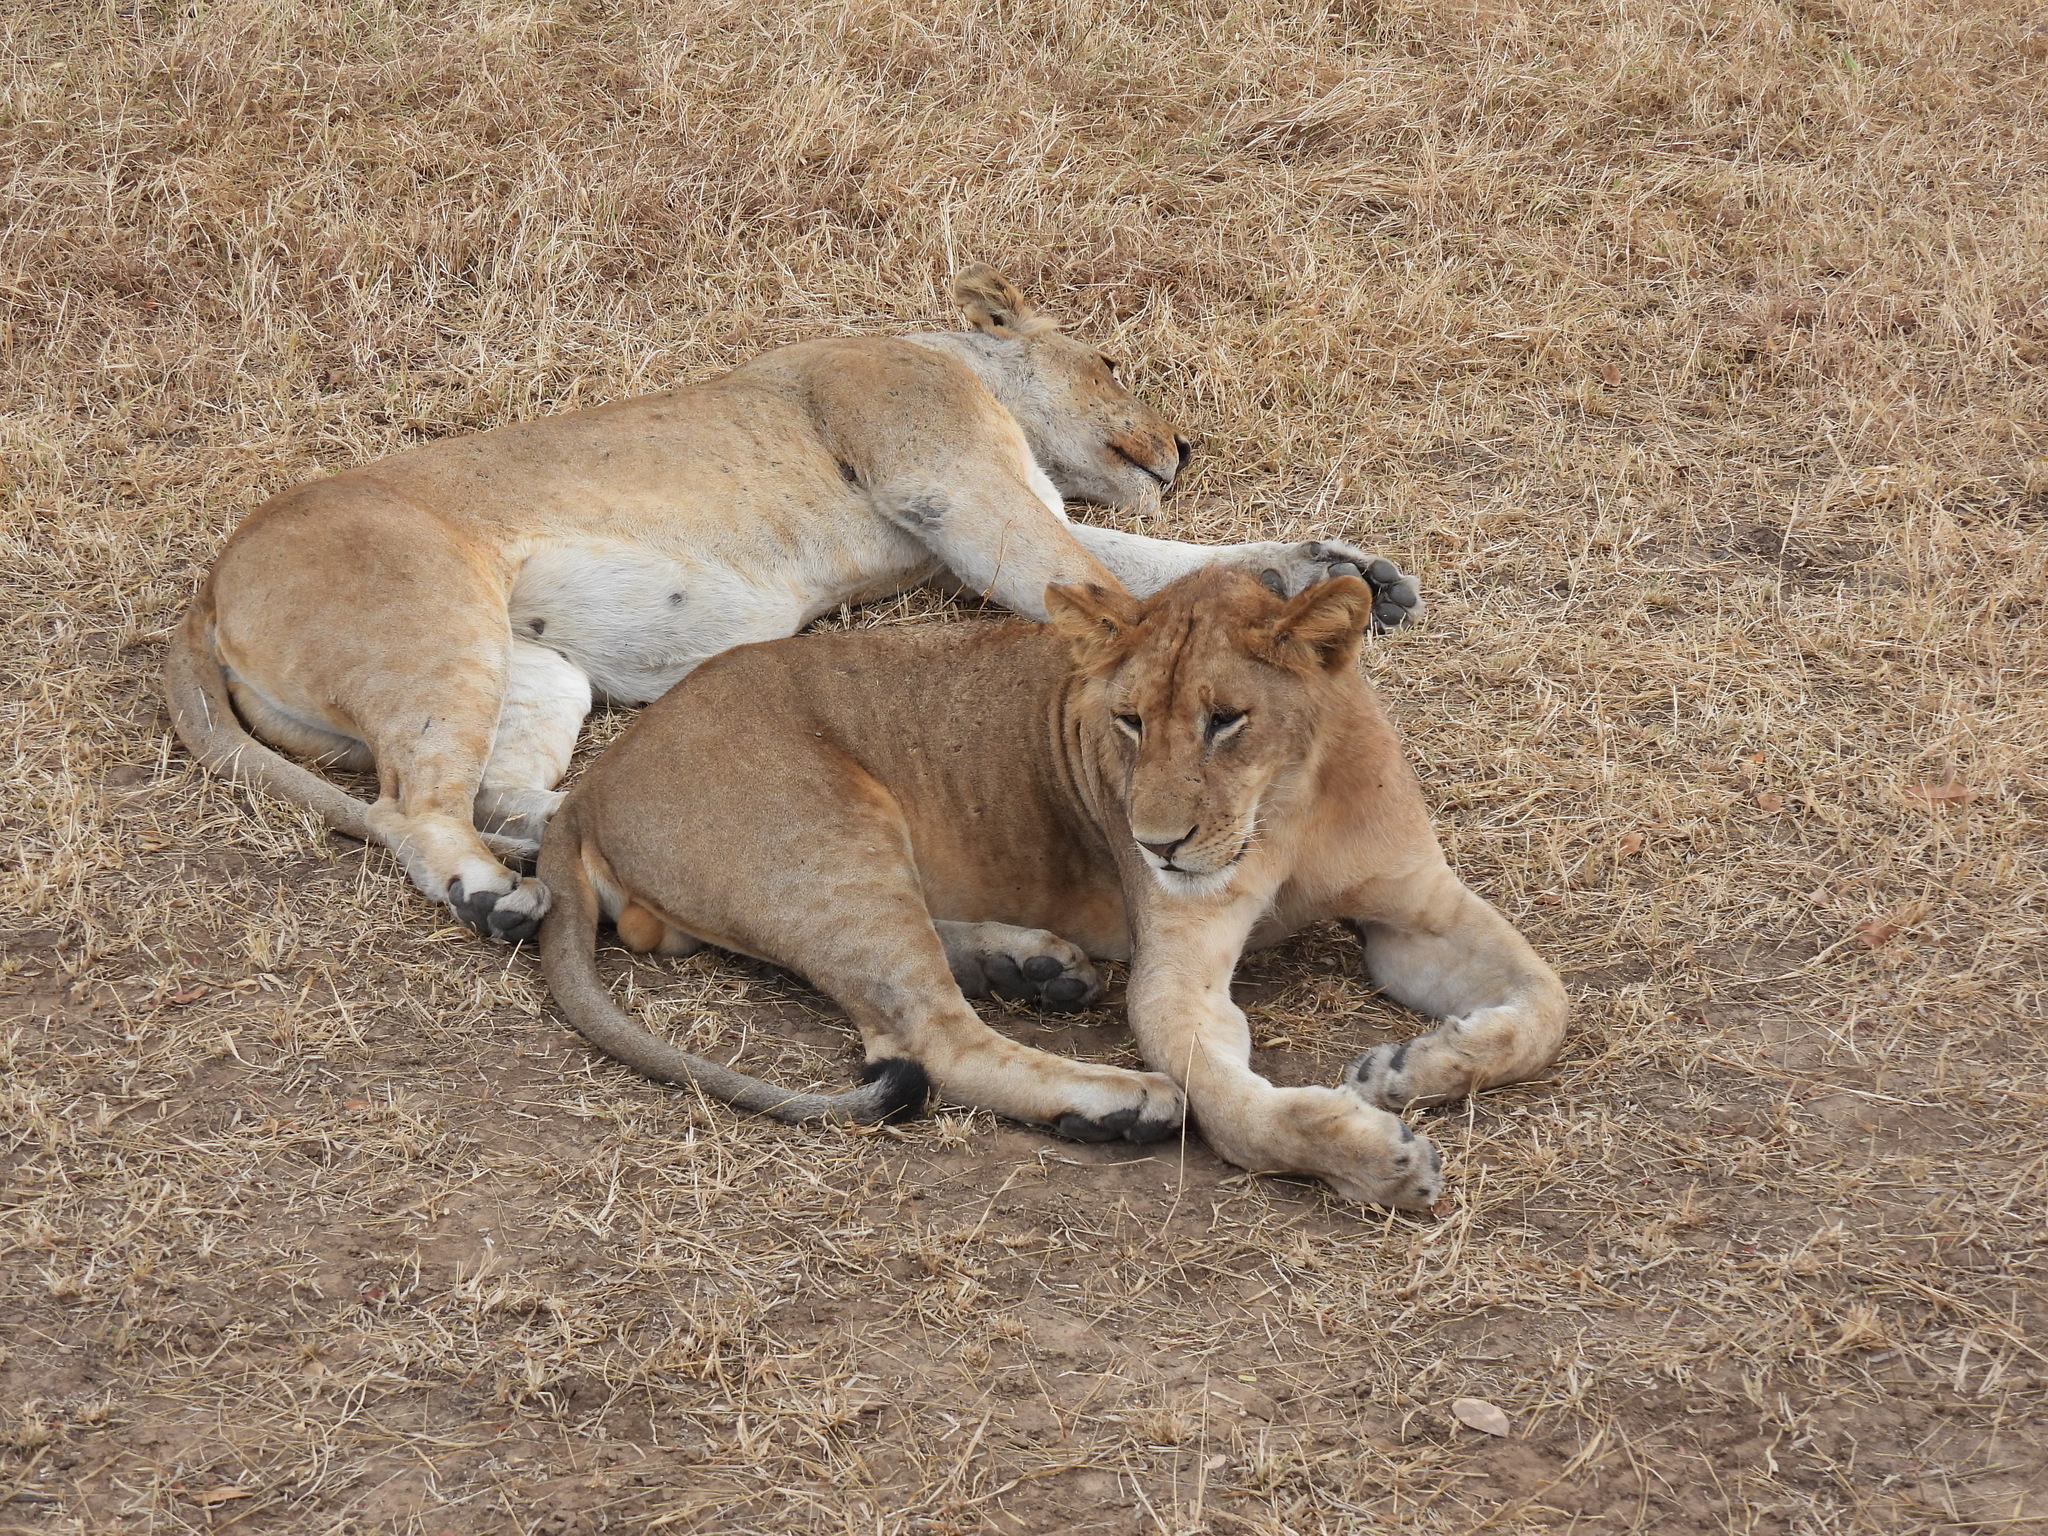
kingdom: Animalia
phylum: Chordata
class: Mammalia
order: Carnivora
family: Felidae
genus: Panthera
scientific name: Panthera leo
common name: Lion
